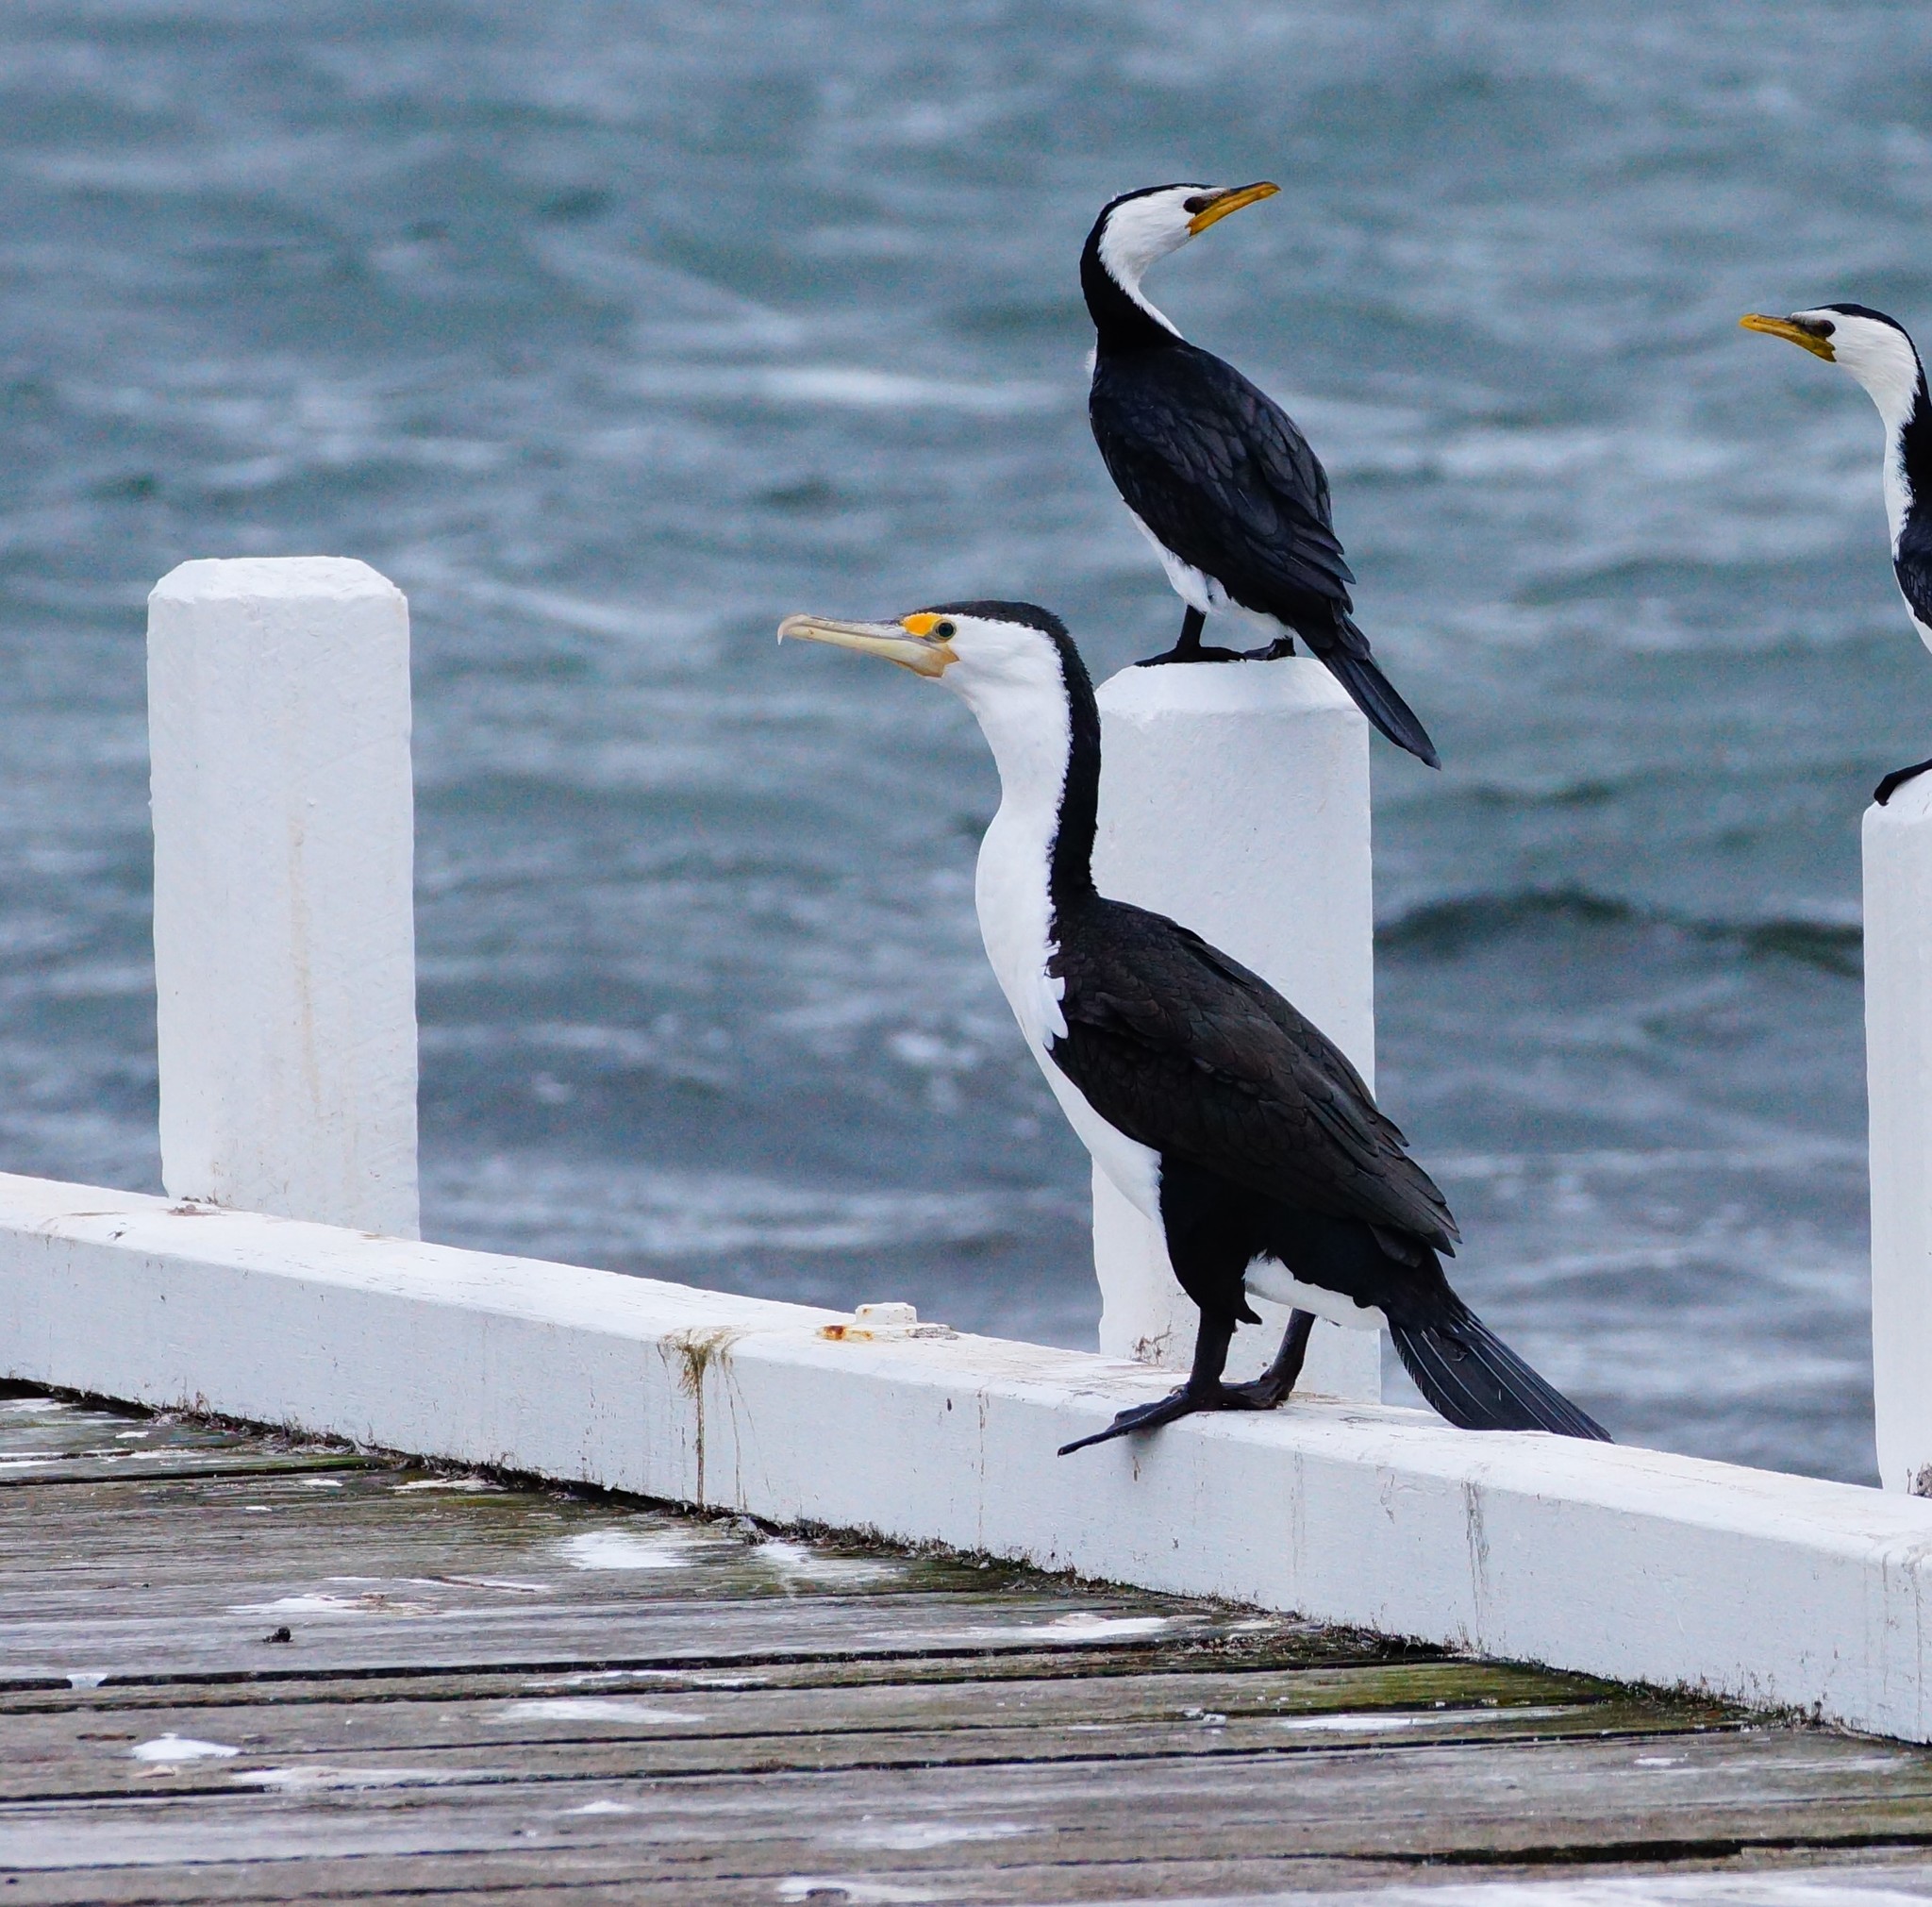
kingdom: Animalia
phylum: Chordata
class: Aves
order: Suliformes
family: Phalacrocoracidae
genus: Phalacrocorax
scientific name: Phalacrocorax varius
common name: Pied cormorant
